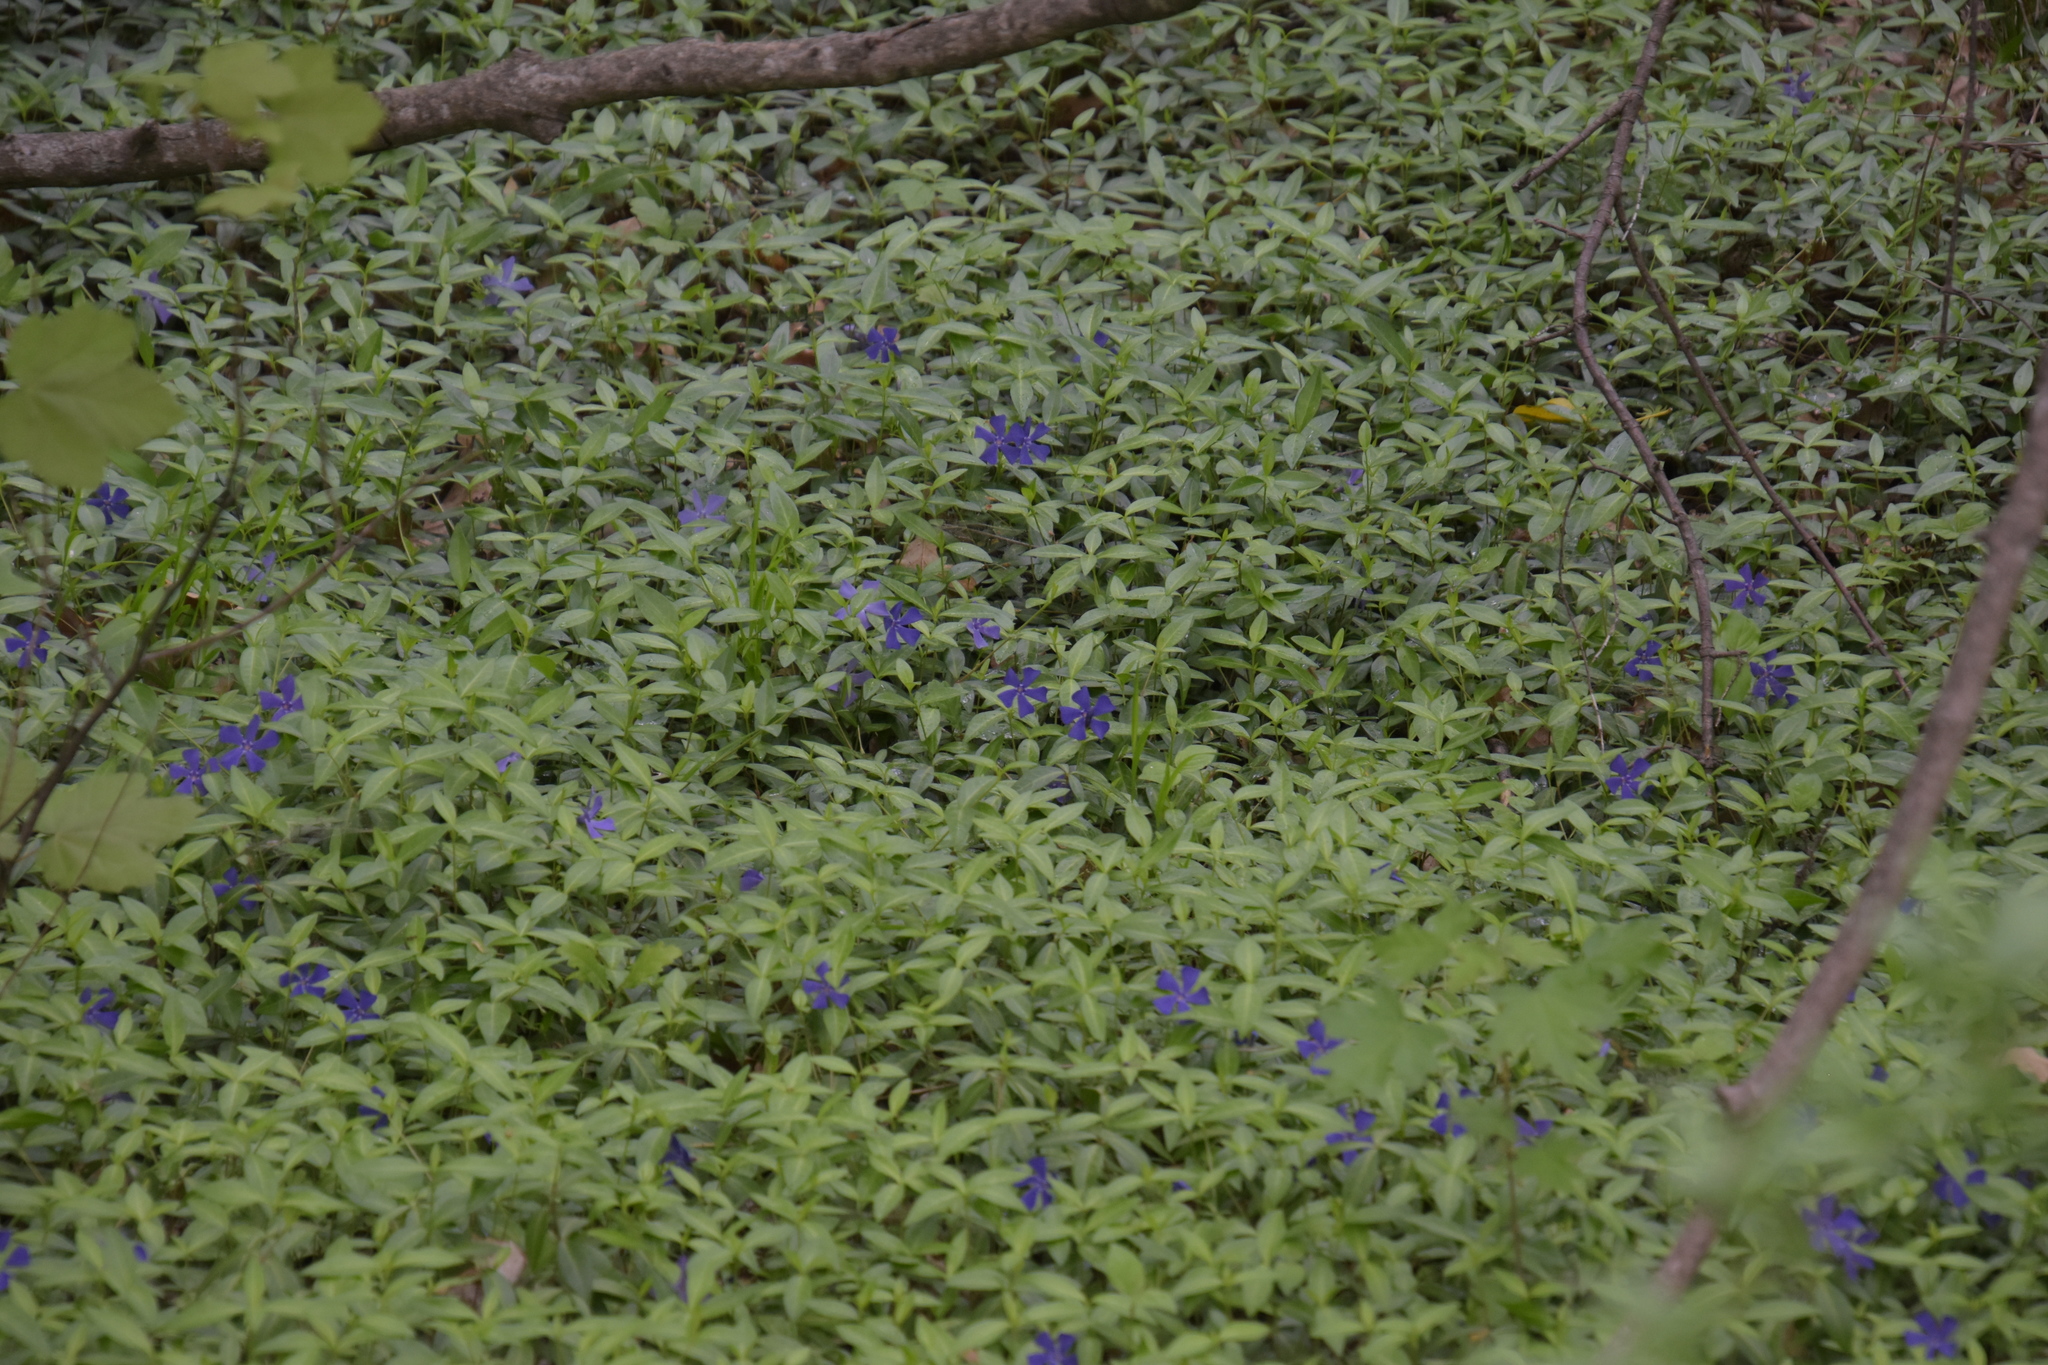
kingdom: Plantae
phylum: Tracheophyta
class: Magnoliopsida
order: Gentianales
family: Apocynaceae
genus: Vinca
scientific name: Vinca minor
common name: Lesser periwinkle
